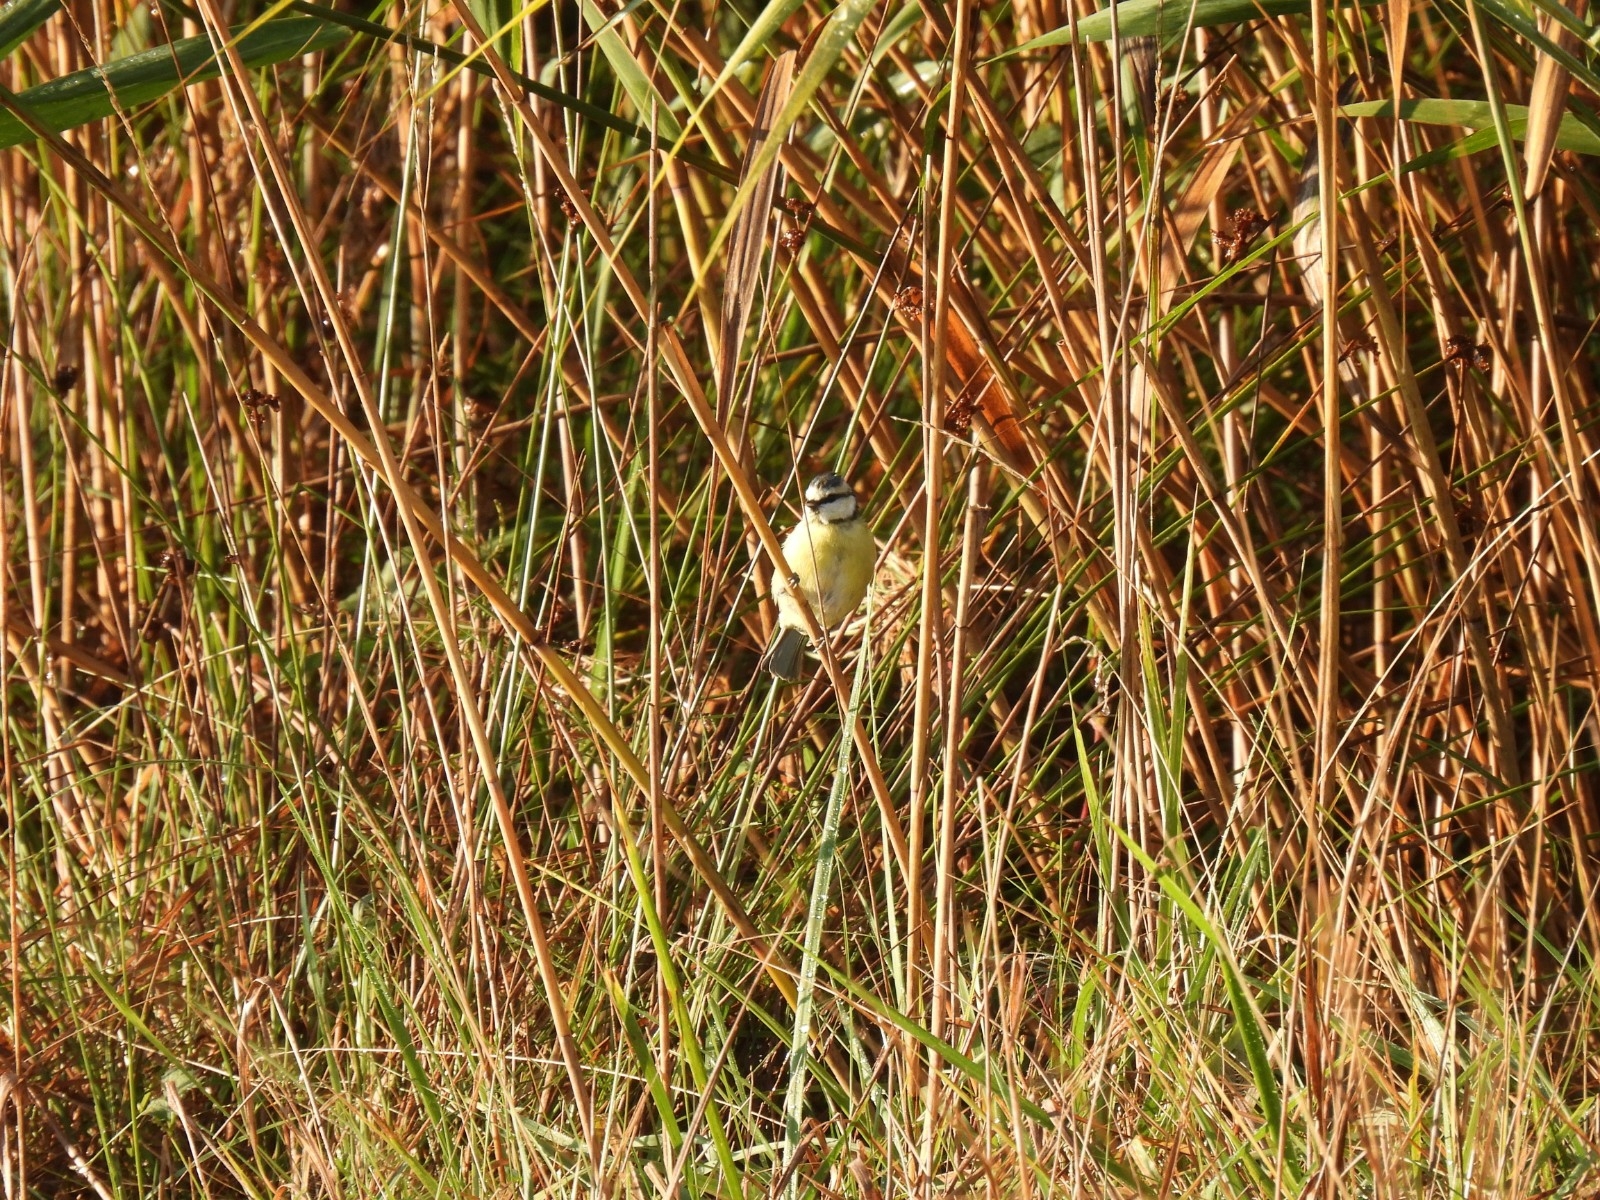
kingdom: Animalia
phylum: Chordata
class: Aves
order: Passeriformes
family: Paridae
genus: Cyanistes
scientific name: Cyanistes caeruleus
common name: Eurasian blue tit
